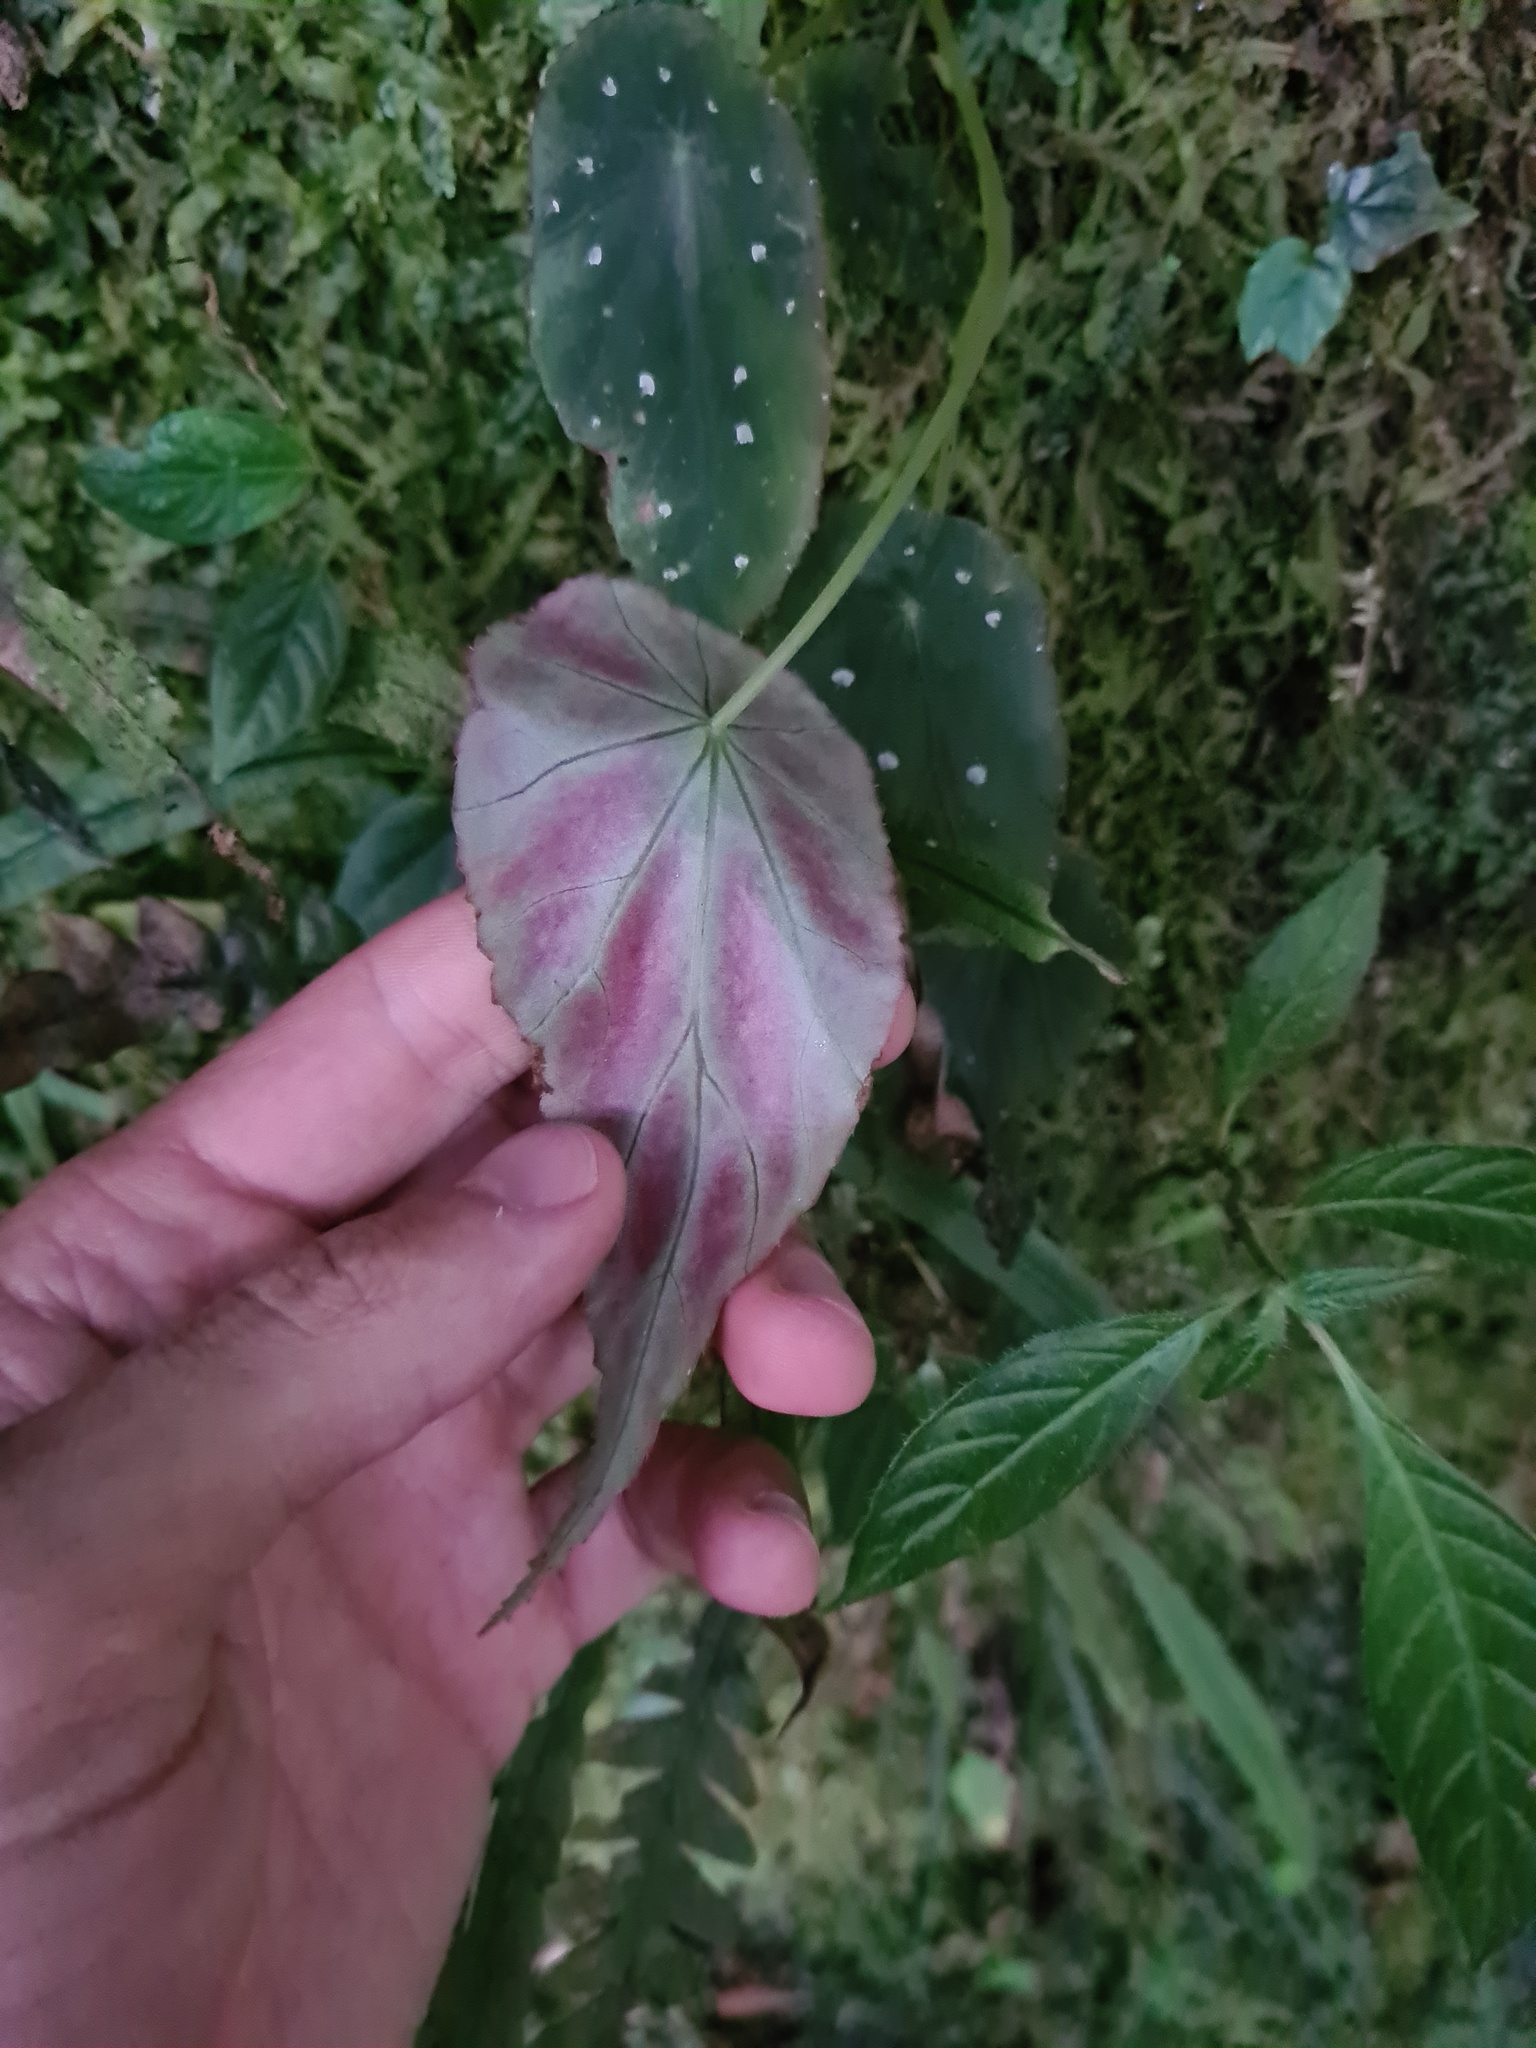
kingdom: Plantae
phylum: Tracheophyta
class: Magnoliopsida
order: Cucurbitales
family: Begoniaceae
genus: Begonia
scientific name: Begonia hitchcockii
